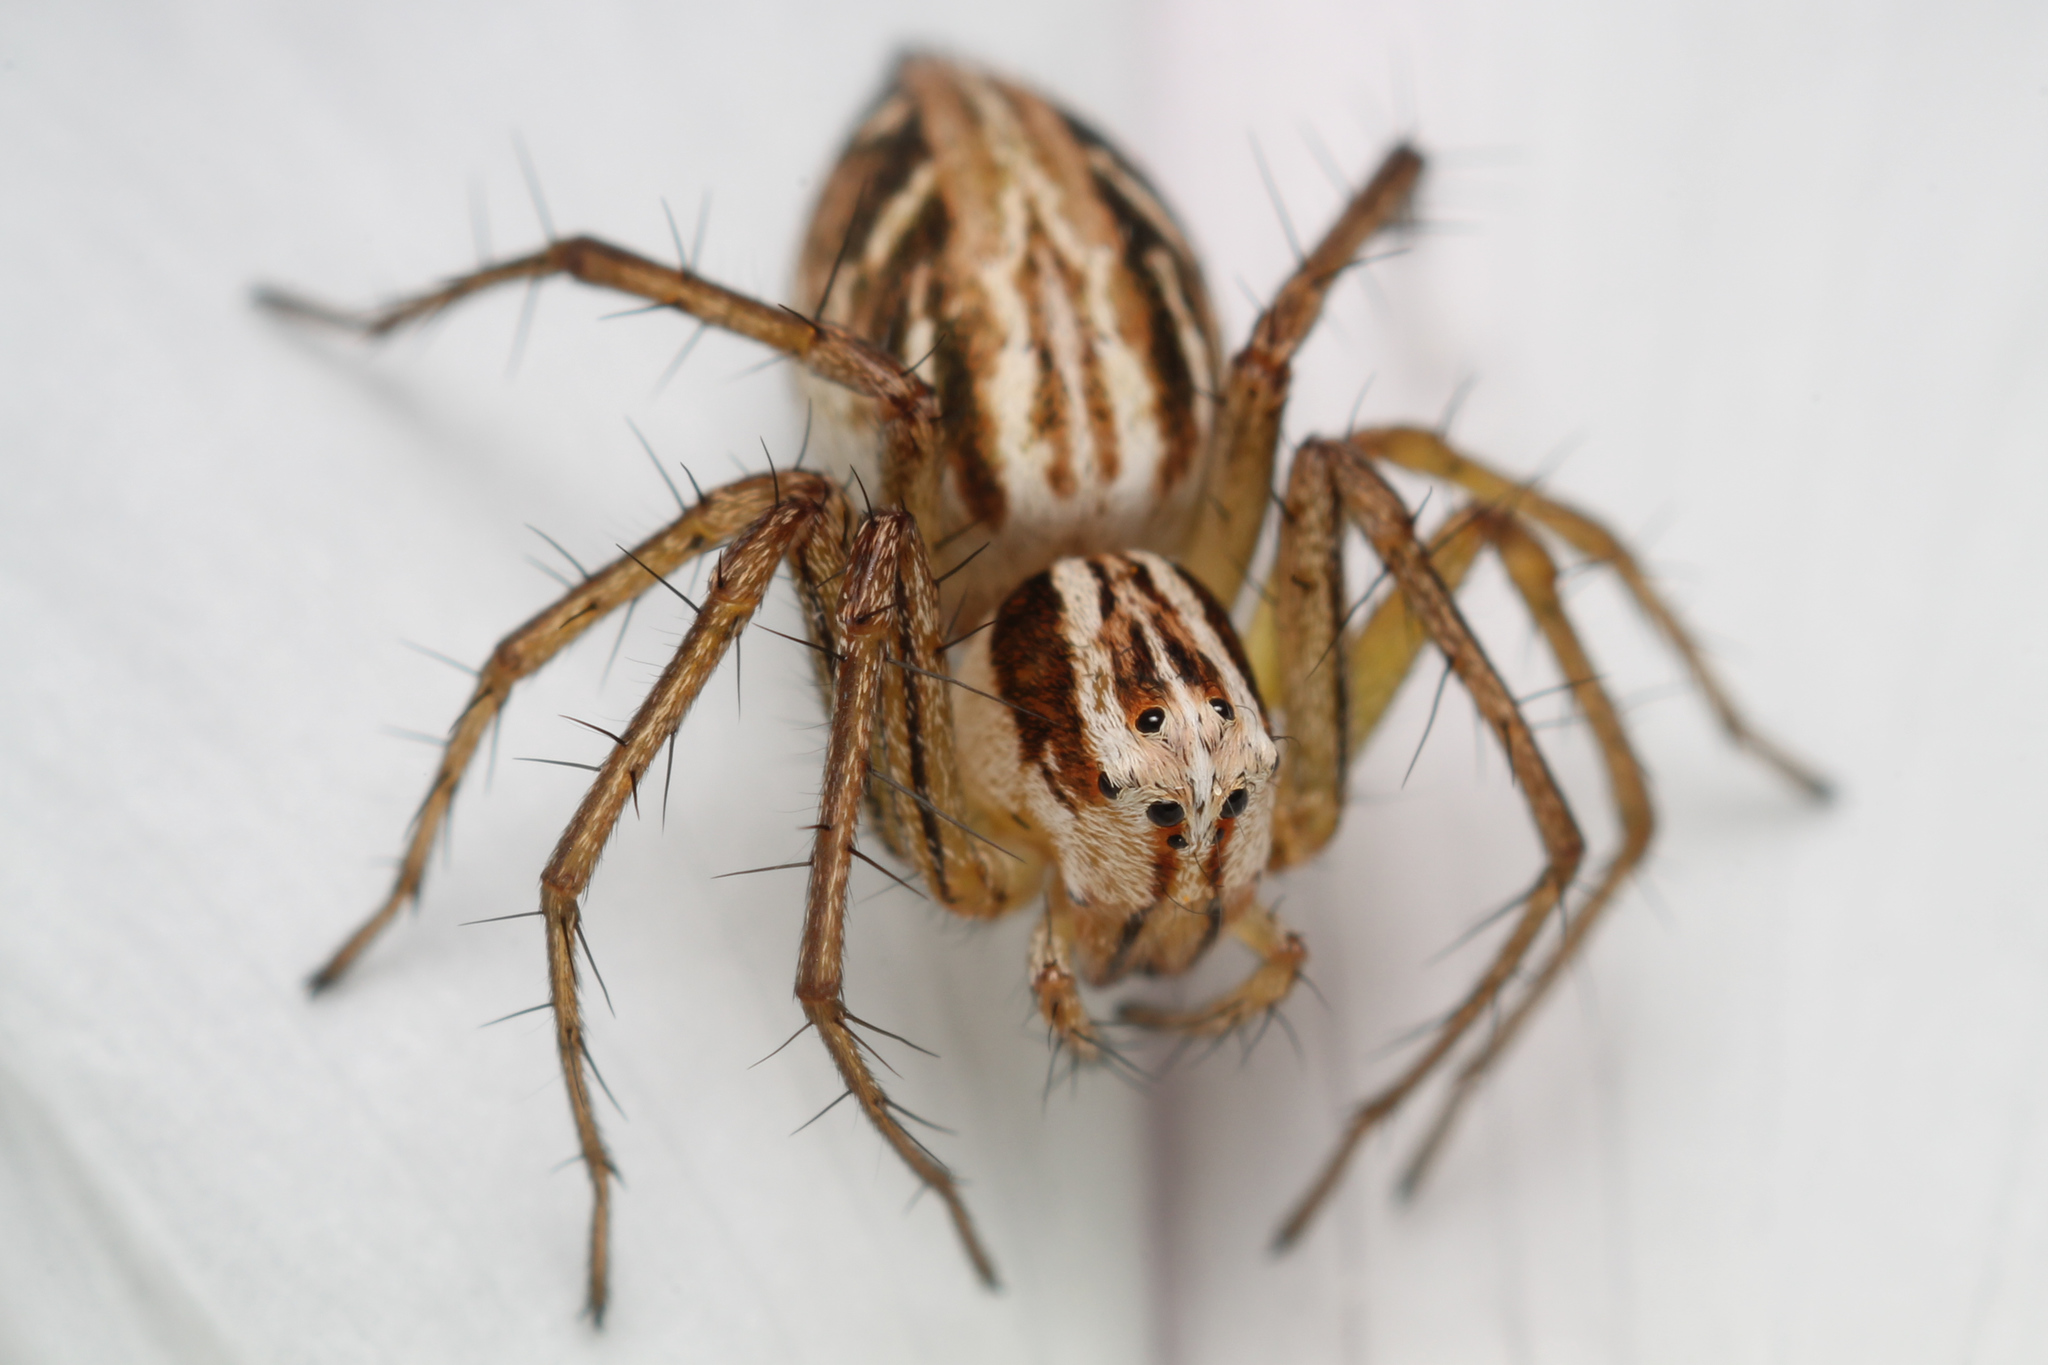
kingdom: Animalia
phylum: Arthropoda
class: Arachnida
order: Araneae
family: Oxyopidae
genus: Oxyopes
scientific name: Oxyopes gracilipes
